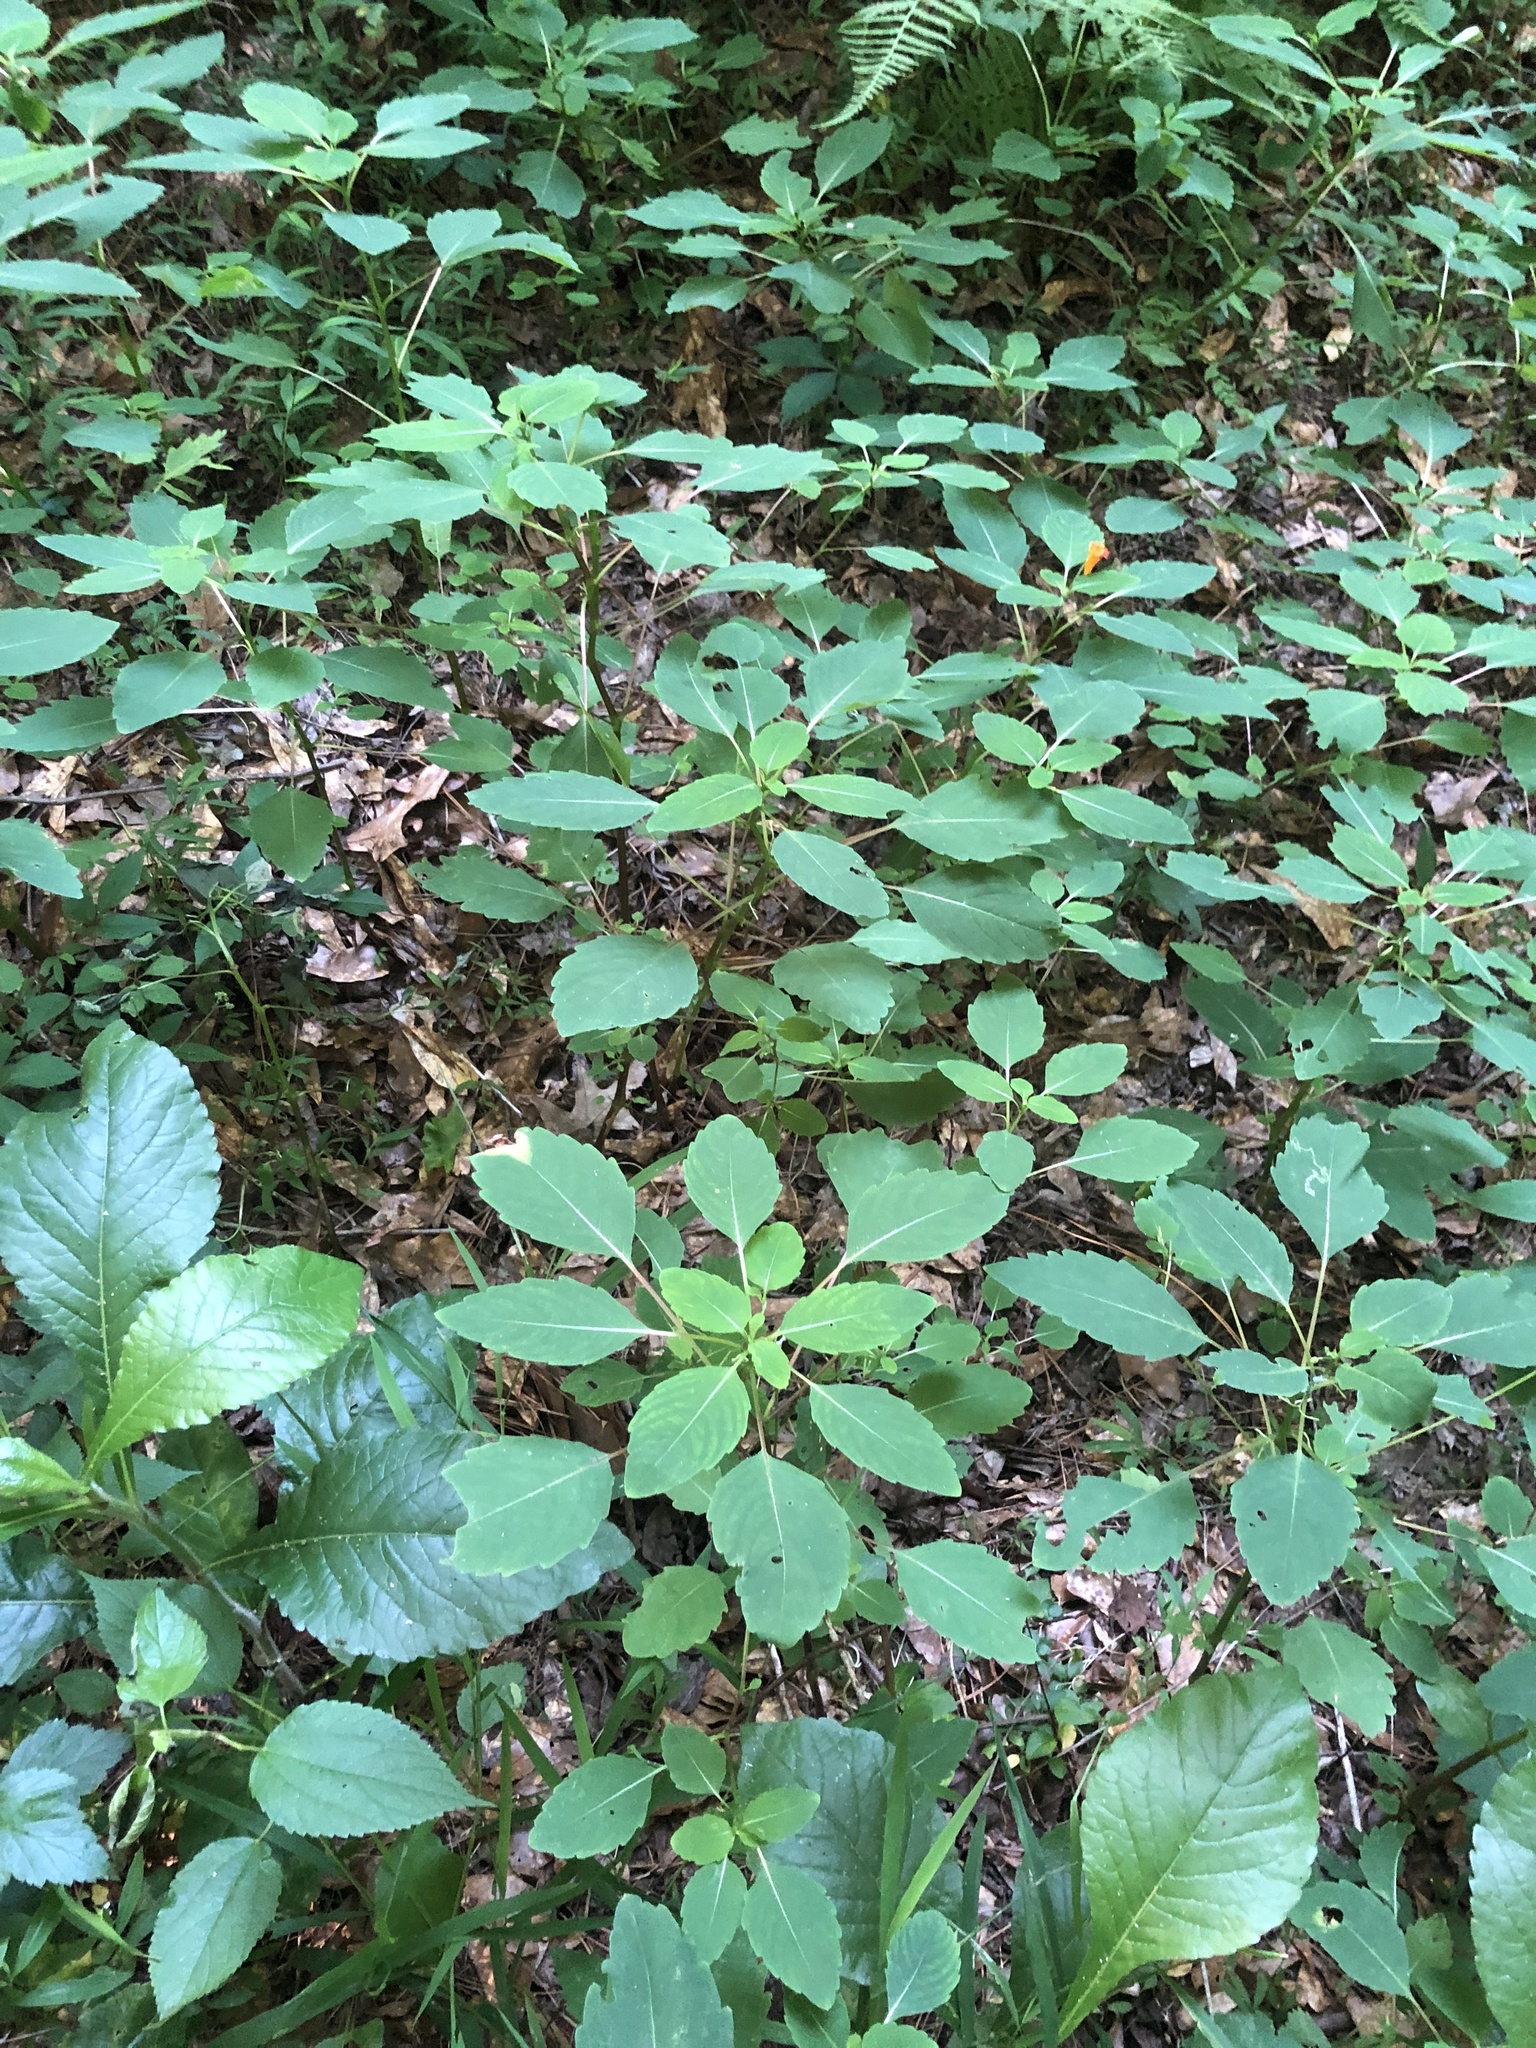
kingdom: Plantae
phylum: Tracheophyta
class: Magnoliopsida
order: Ericales
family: Balsaminaceae
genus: Impatiens
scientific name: Impatiens capensis
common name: Orange balsam
